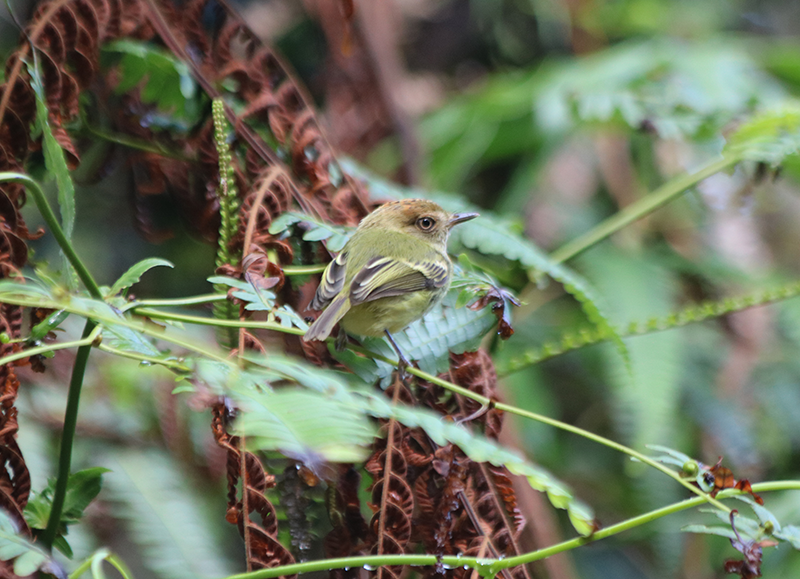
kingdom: Animalia
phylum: Chordata
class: Aves
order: Passeriformes
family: Tyrannidae
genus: Lophotriccus
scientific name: Lophotriccus pileatus
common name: Scale-crested pygmy-tyrant
